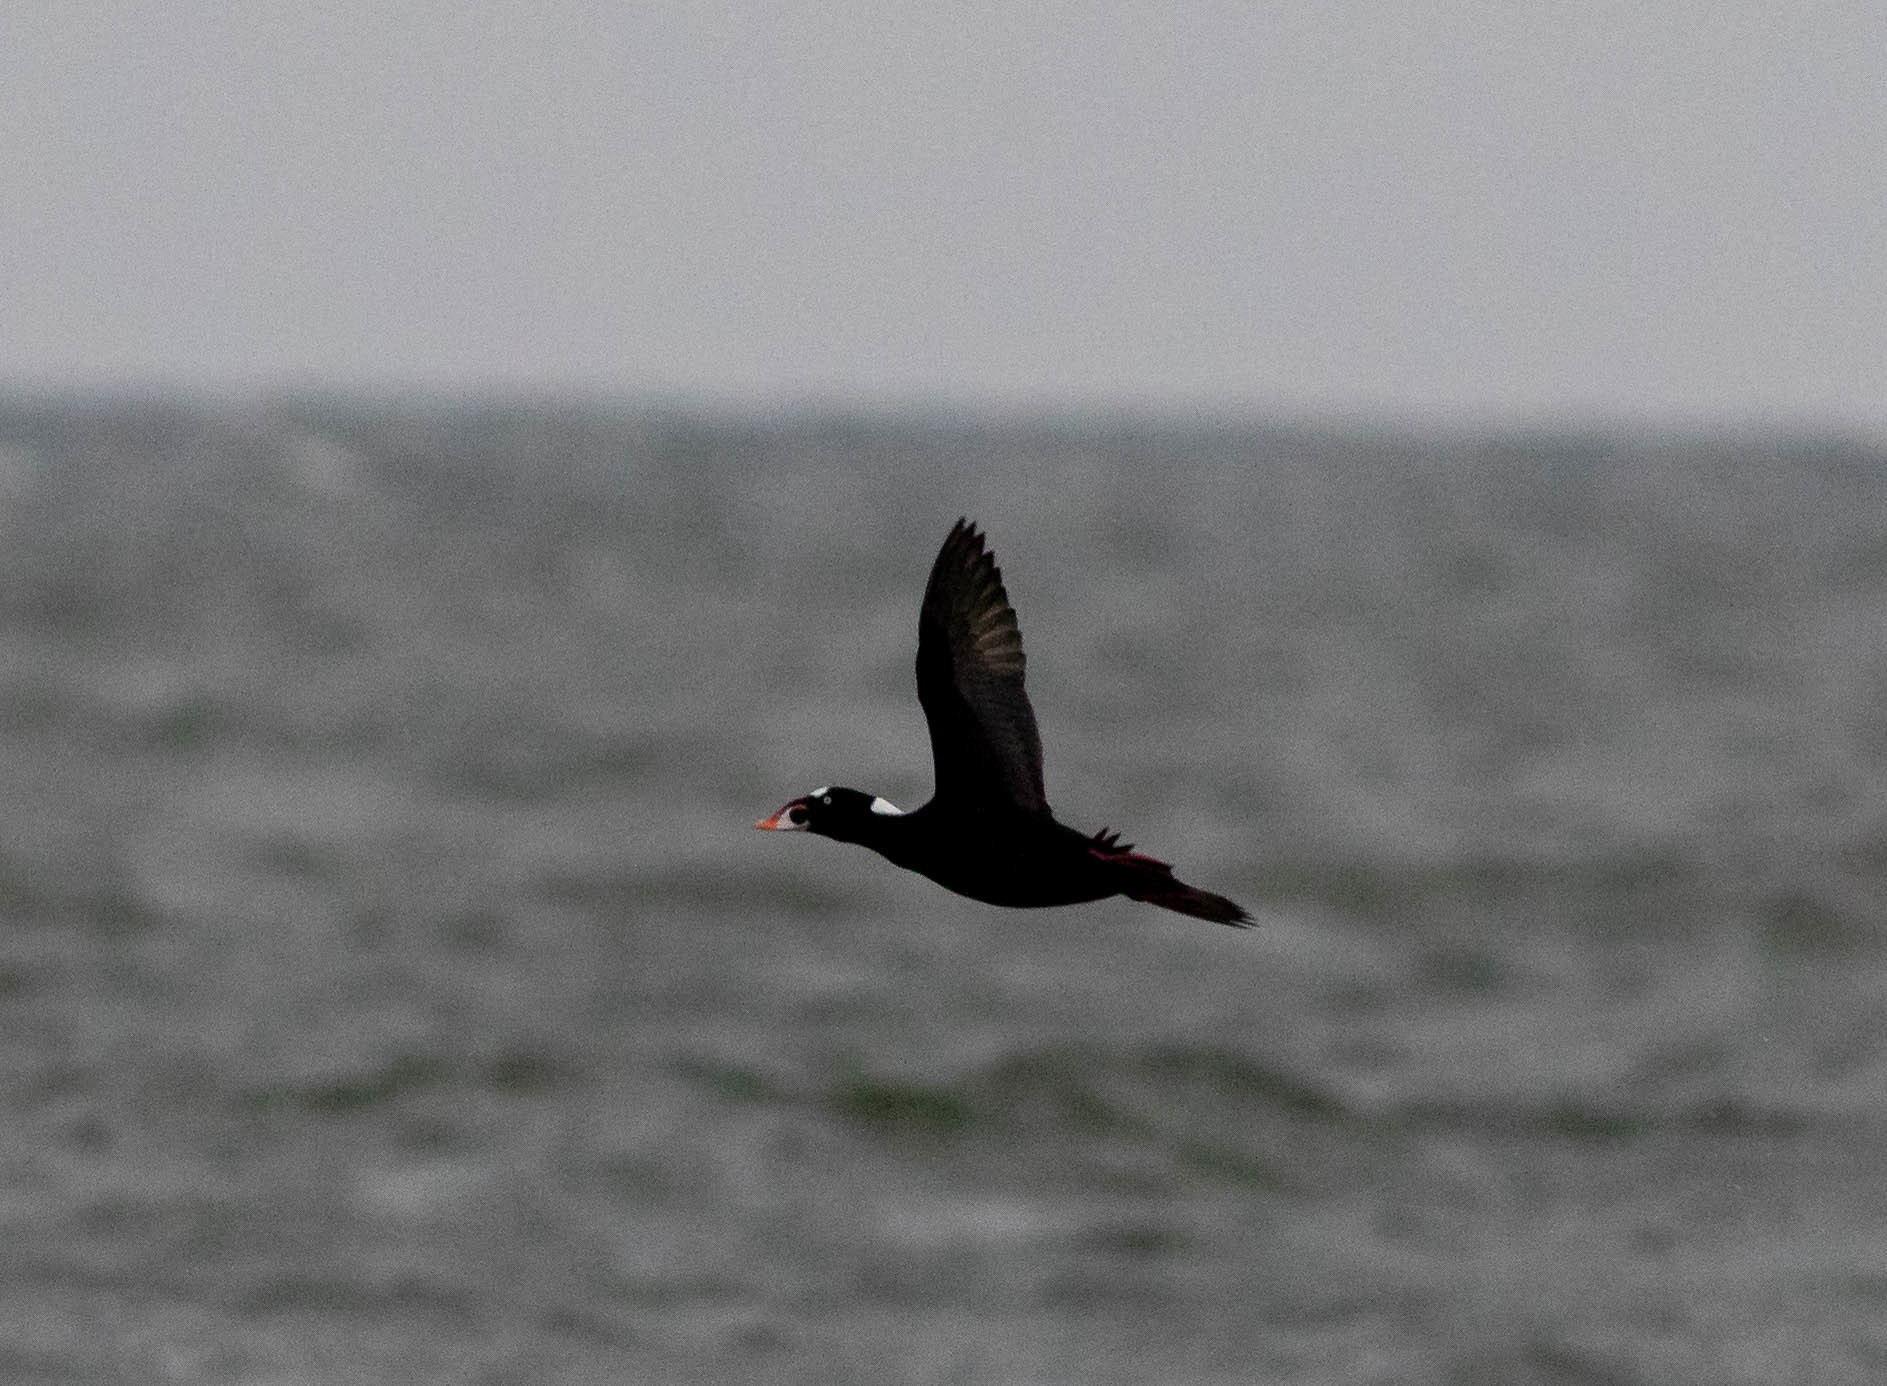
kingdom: Animalia
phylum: Chordata
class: Aves
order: Anseriformes
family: Anatidae
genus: Melanitta
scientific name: Melanitta perspicillata
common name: Surf scoter
